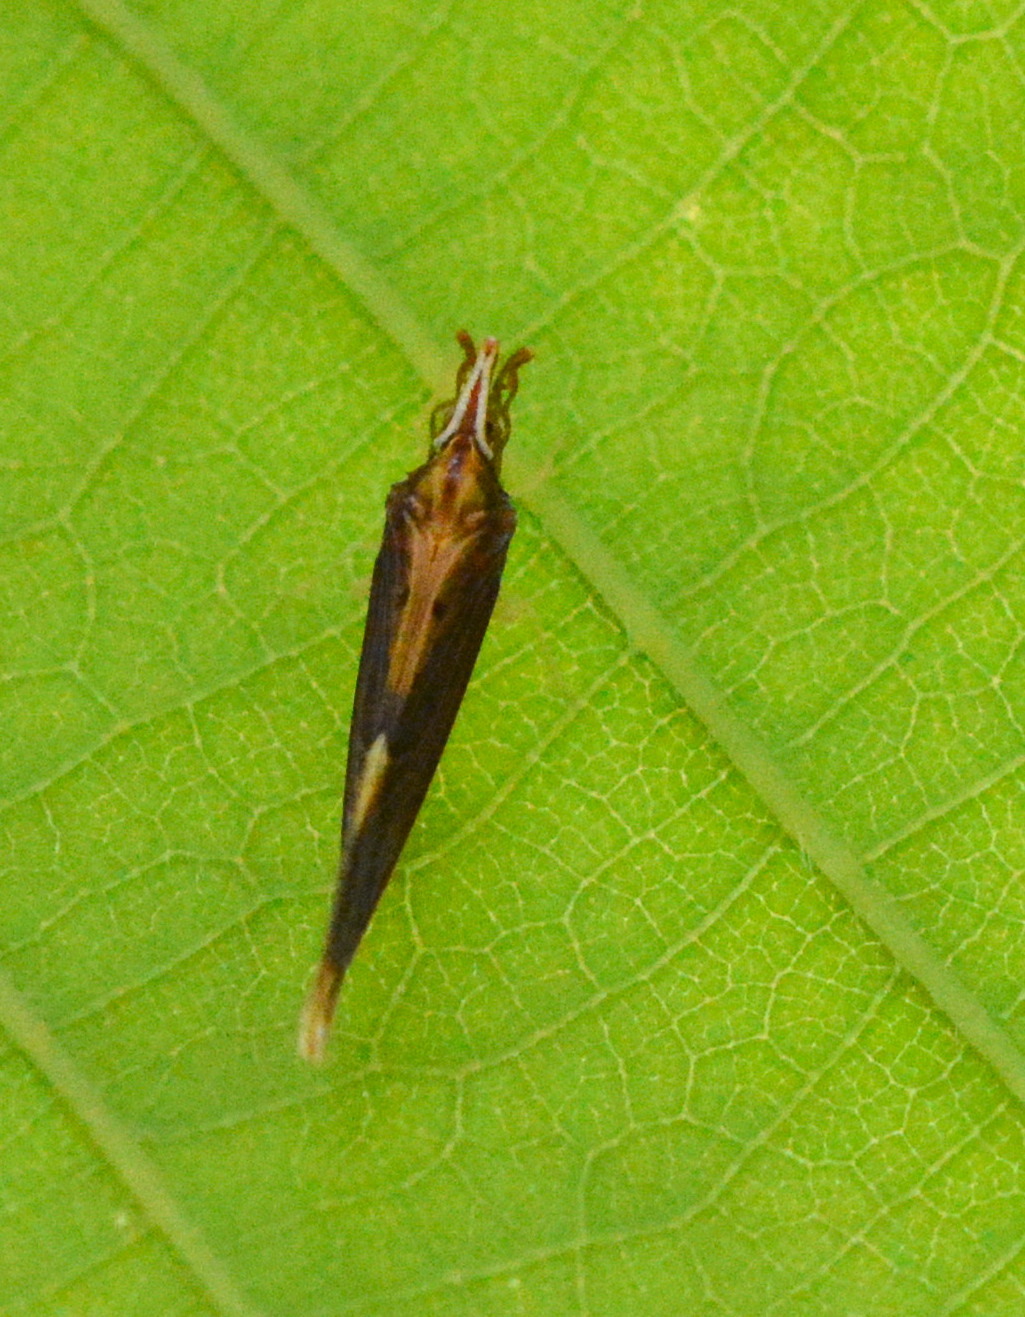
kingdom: Animalia
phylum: Arthropoda
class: Insecta
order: Hemiptera
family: Derbidae
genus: Otiocerus
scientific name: Otiocerus stollii
